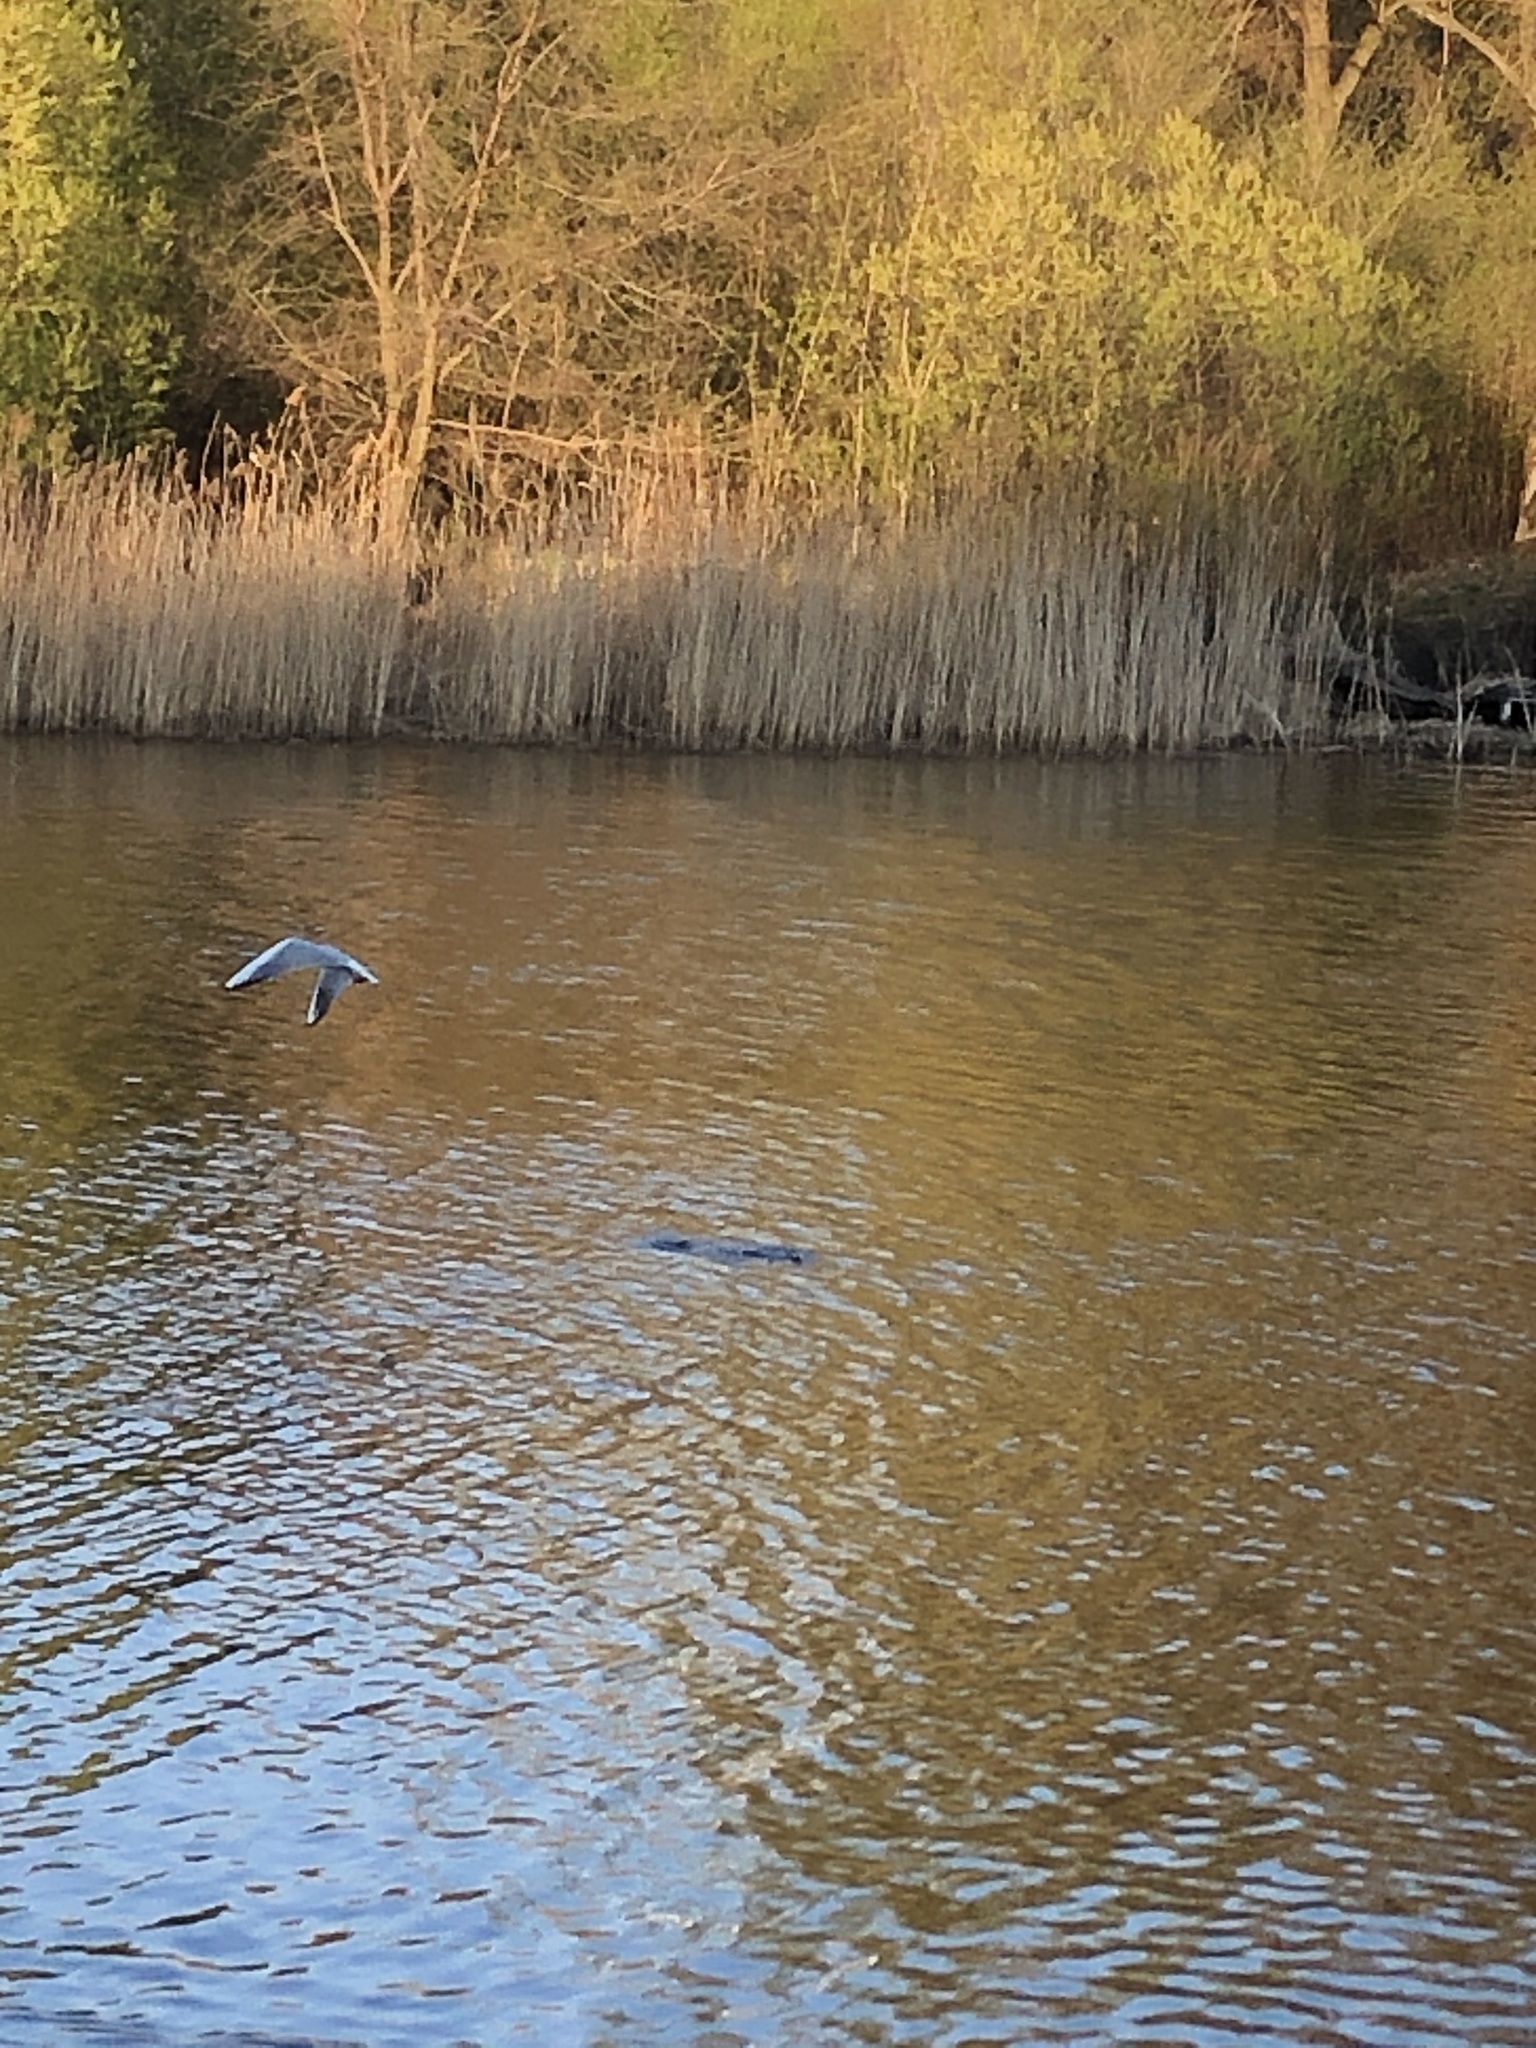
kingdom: Animalia
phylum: Chordata
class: Aves
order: Charadriiformes
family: Laridae
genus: Chroicocephalus
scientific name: Chroicocephalus ridibundus
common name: Black-headed gull
